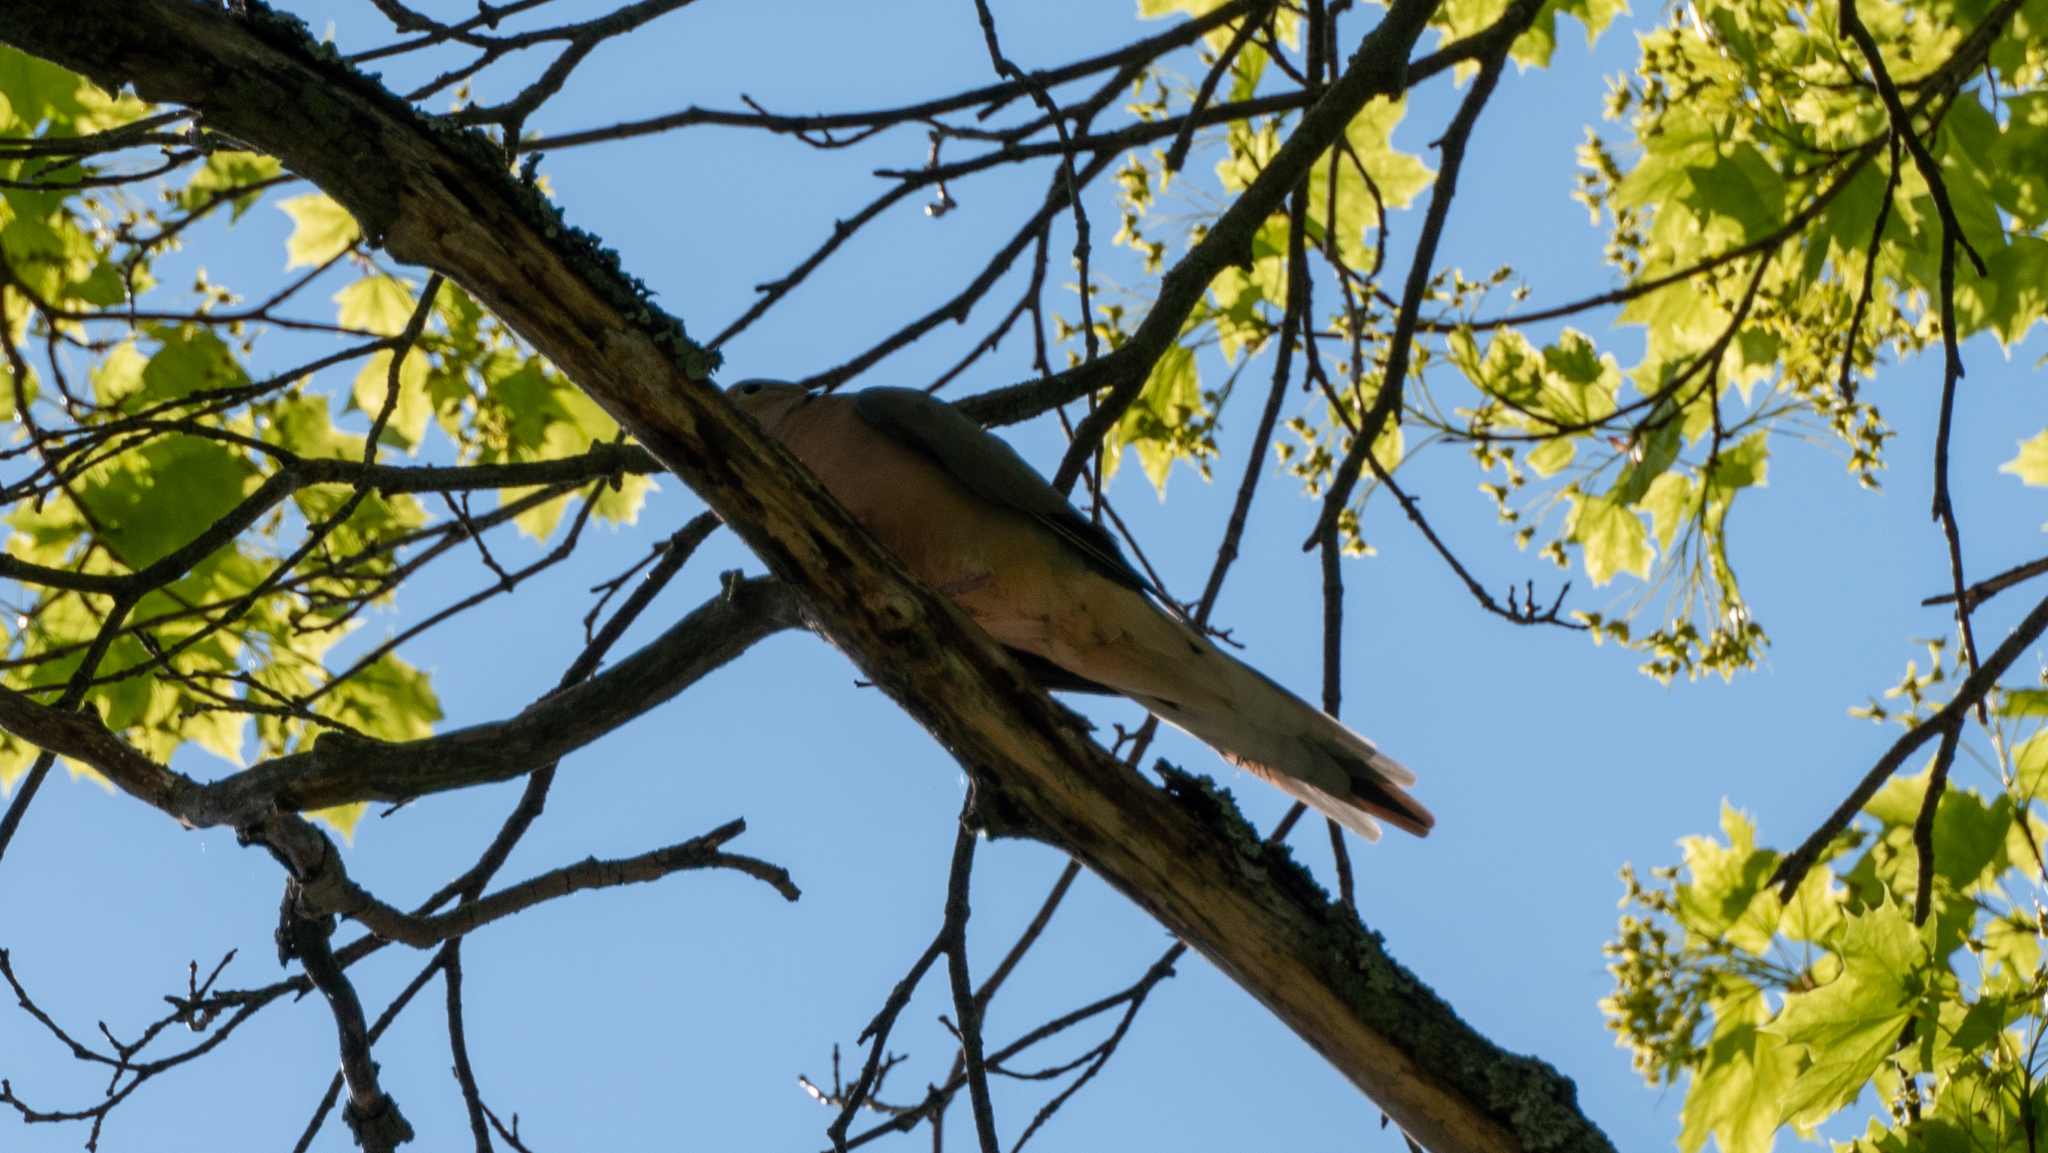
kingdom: Animalia
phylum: Chordata
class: Aves
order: Columbiformes
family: Columbidae
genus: Zenaida
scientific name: Zenaida macroura
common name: Mourning dove
